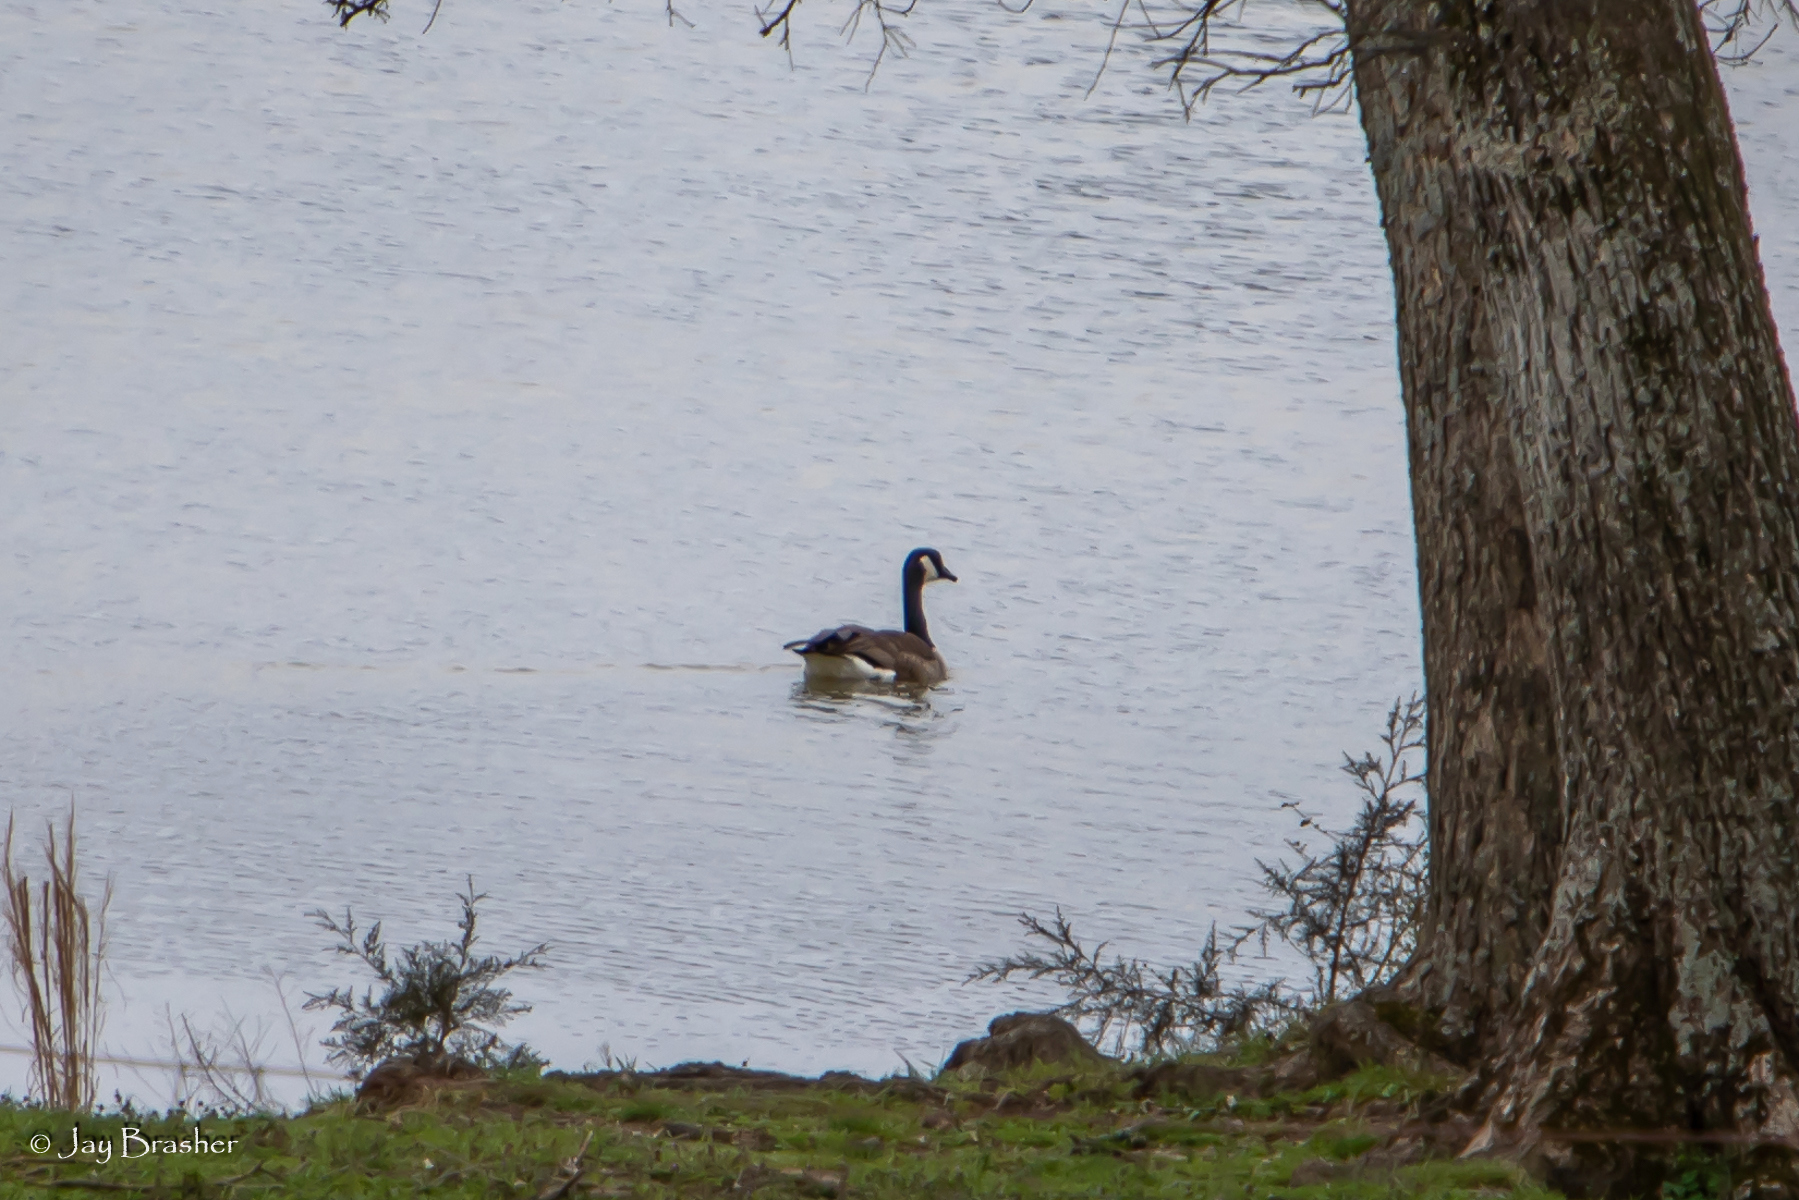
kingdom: Animalia
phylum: Chordata
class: Aves
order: Anseriformes
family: Anatidae
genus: Branta
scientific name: Branta canadensis
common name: Canada goose
